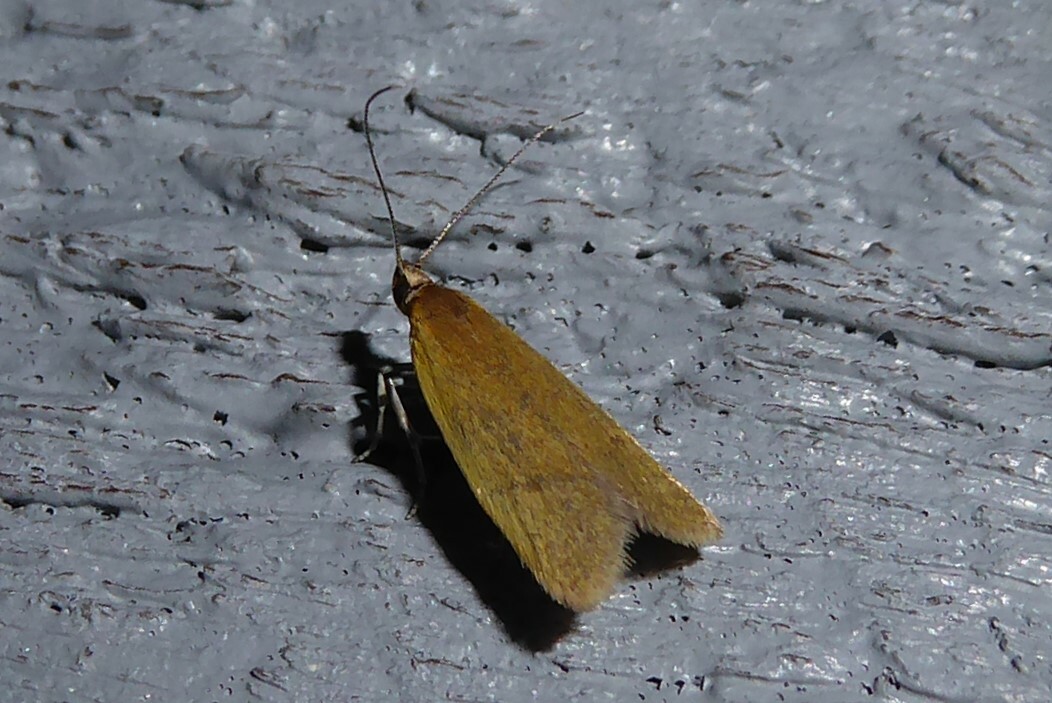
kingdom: Animalia
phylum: Arthropoda
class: Insecta
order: Lepidoptera
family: Oecophoridae
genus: Gymnobathra
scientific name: Gymnobathra parca
